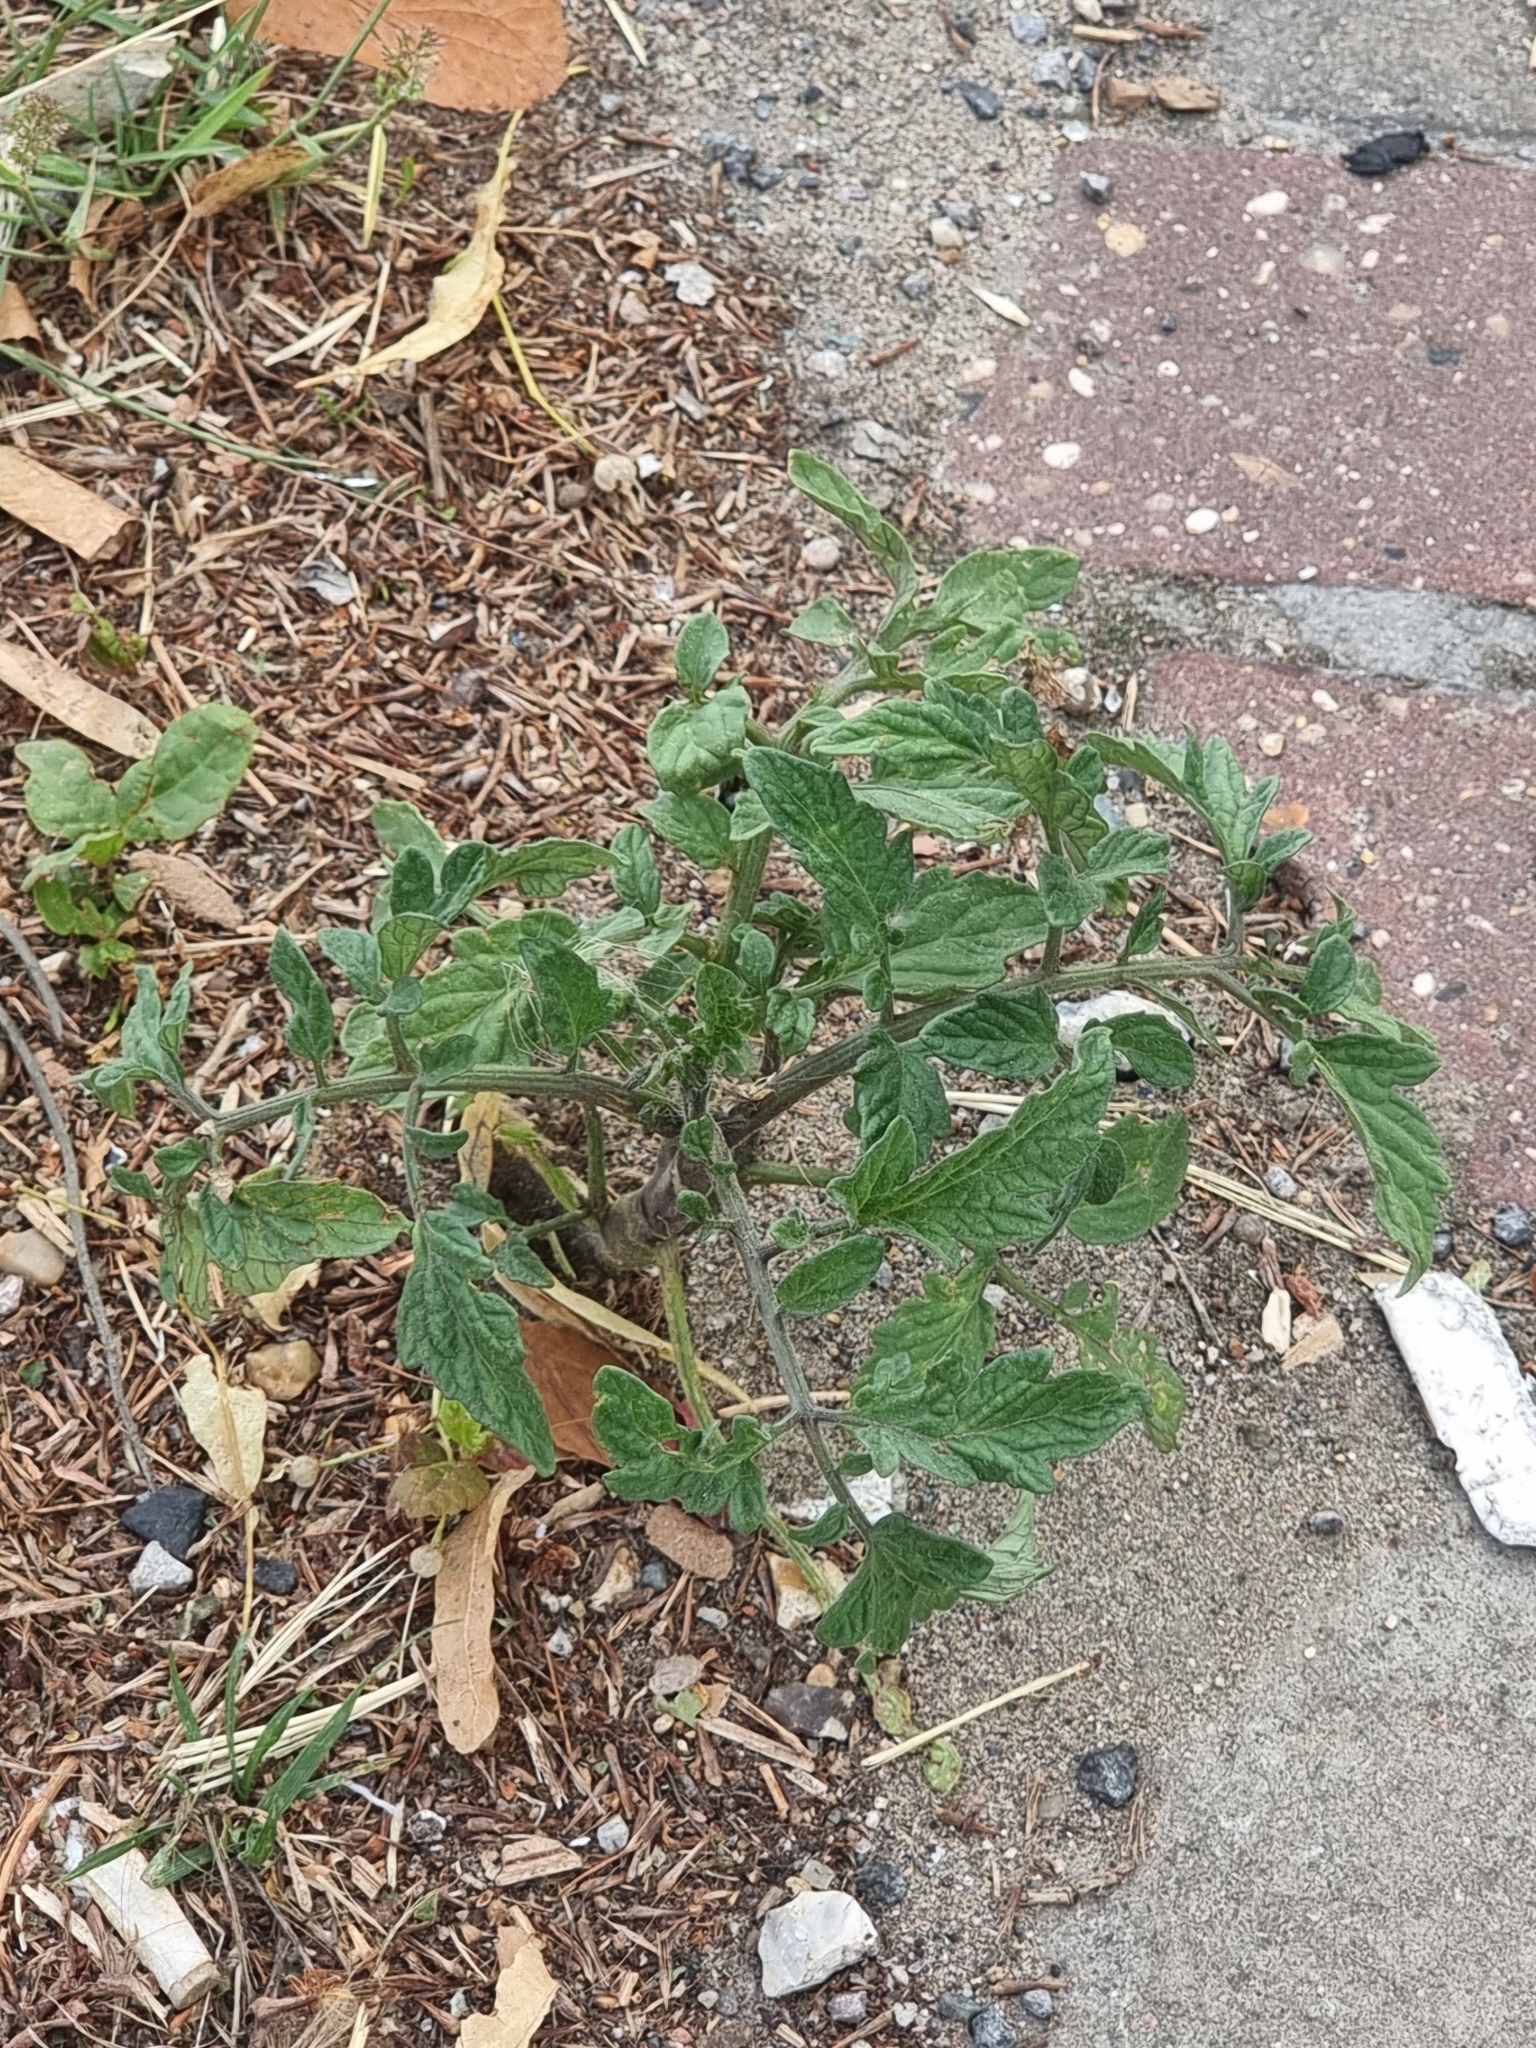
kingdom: Plantae
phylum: Tracheophyta
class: Magnoliopsida
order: Solanales
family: Solanaceae
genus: Solanum
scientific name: Solanum lycopersicum
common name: Garden tomato
